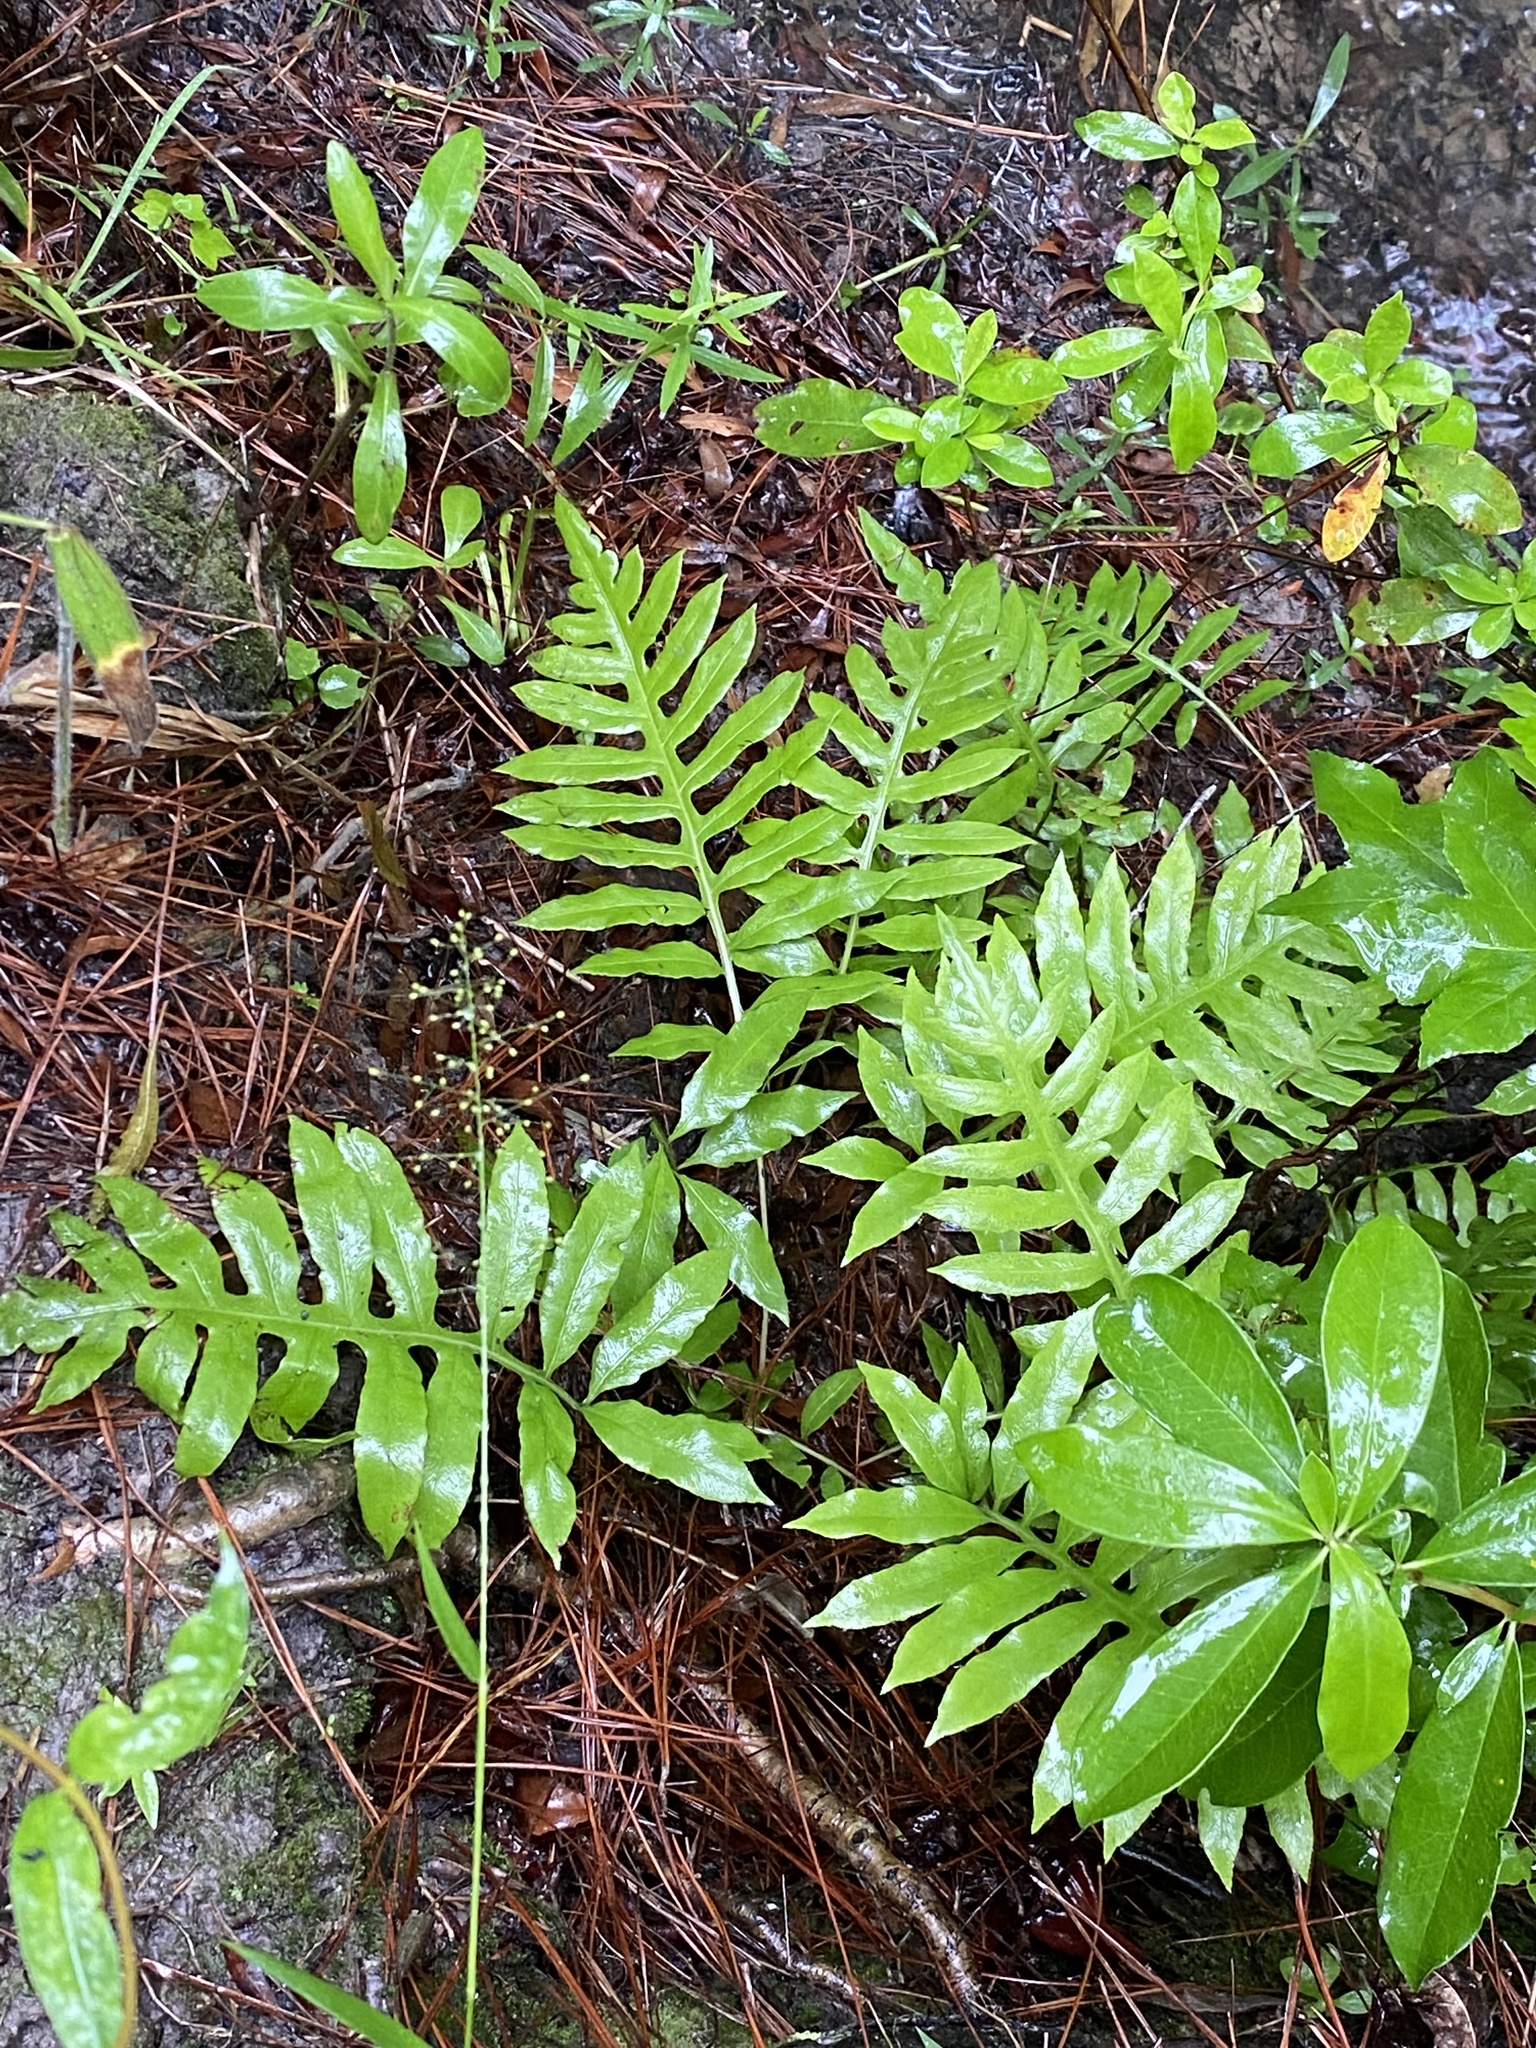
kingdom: Plantae
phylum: Tracheophyta
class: Polypodiopsida
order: Polypodiales
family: Blechnaceae
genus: Lorinseria
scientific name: Lorinseria areolata
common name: Dwarf chain fern
